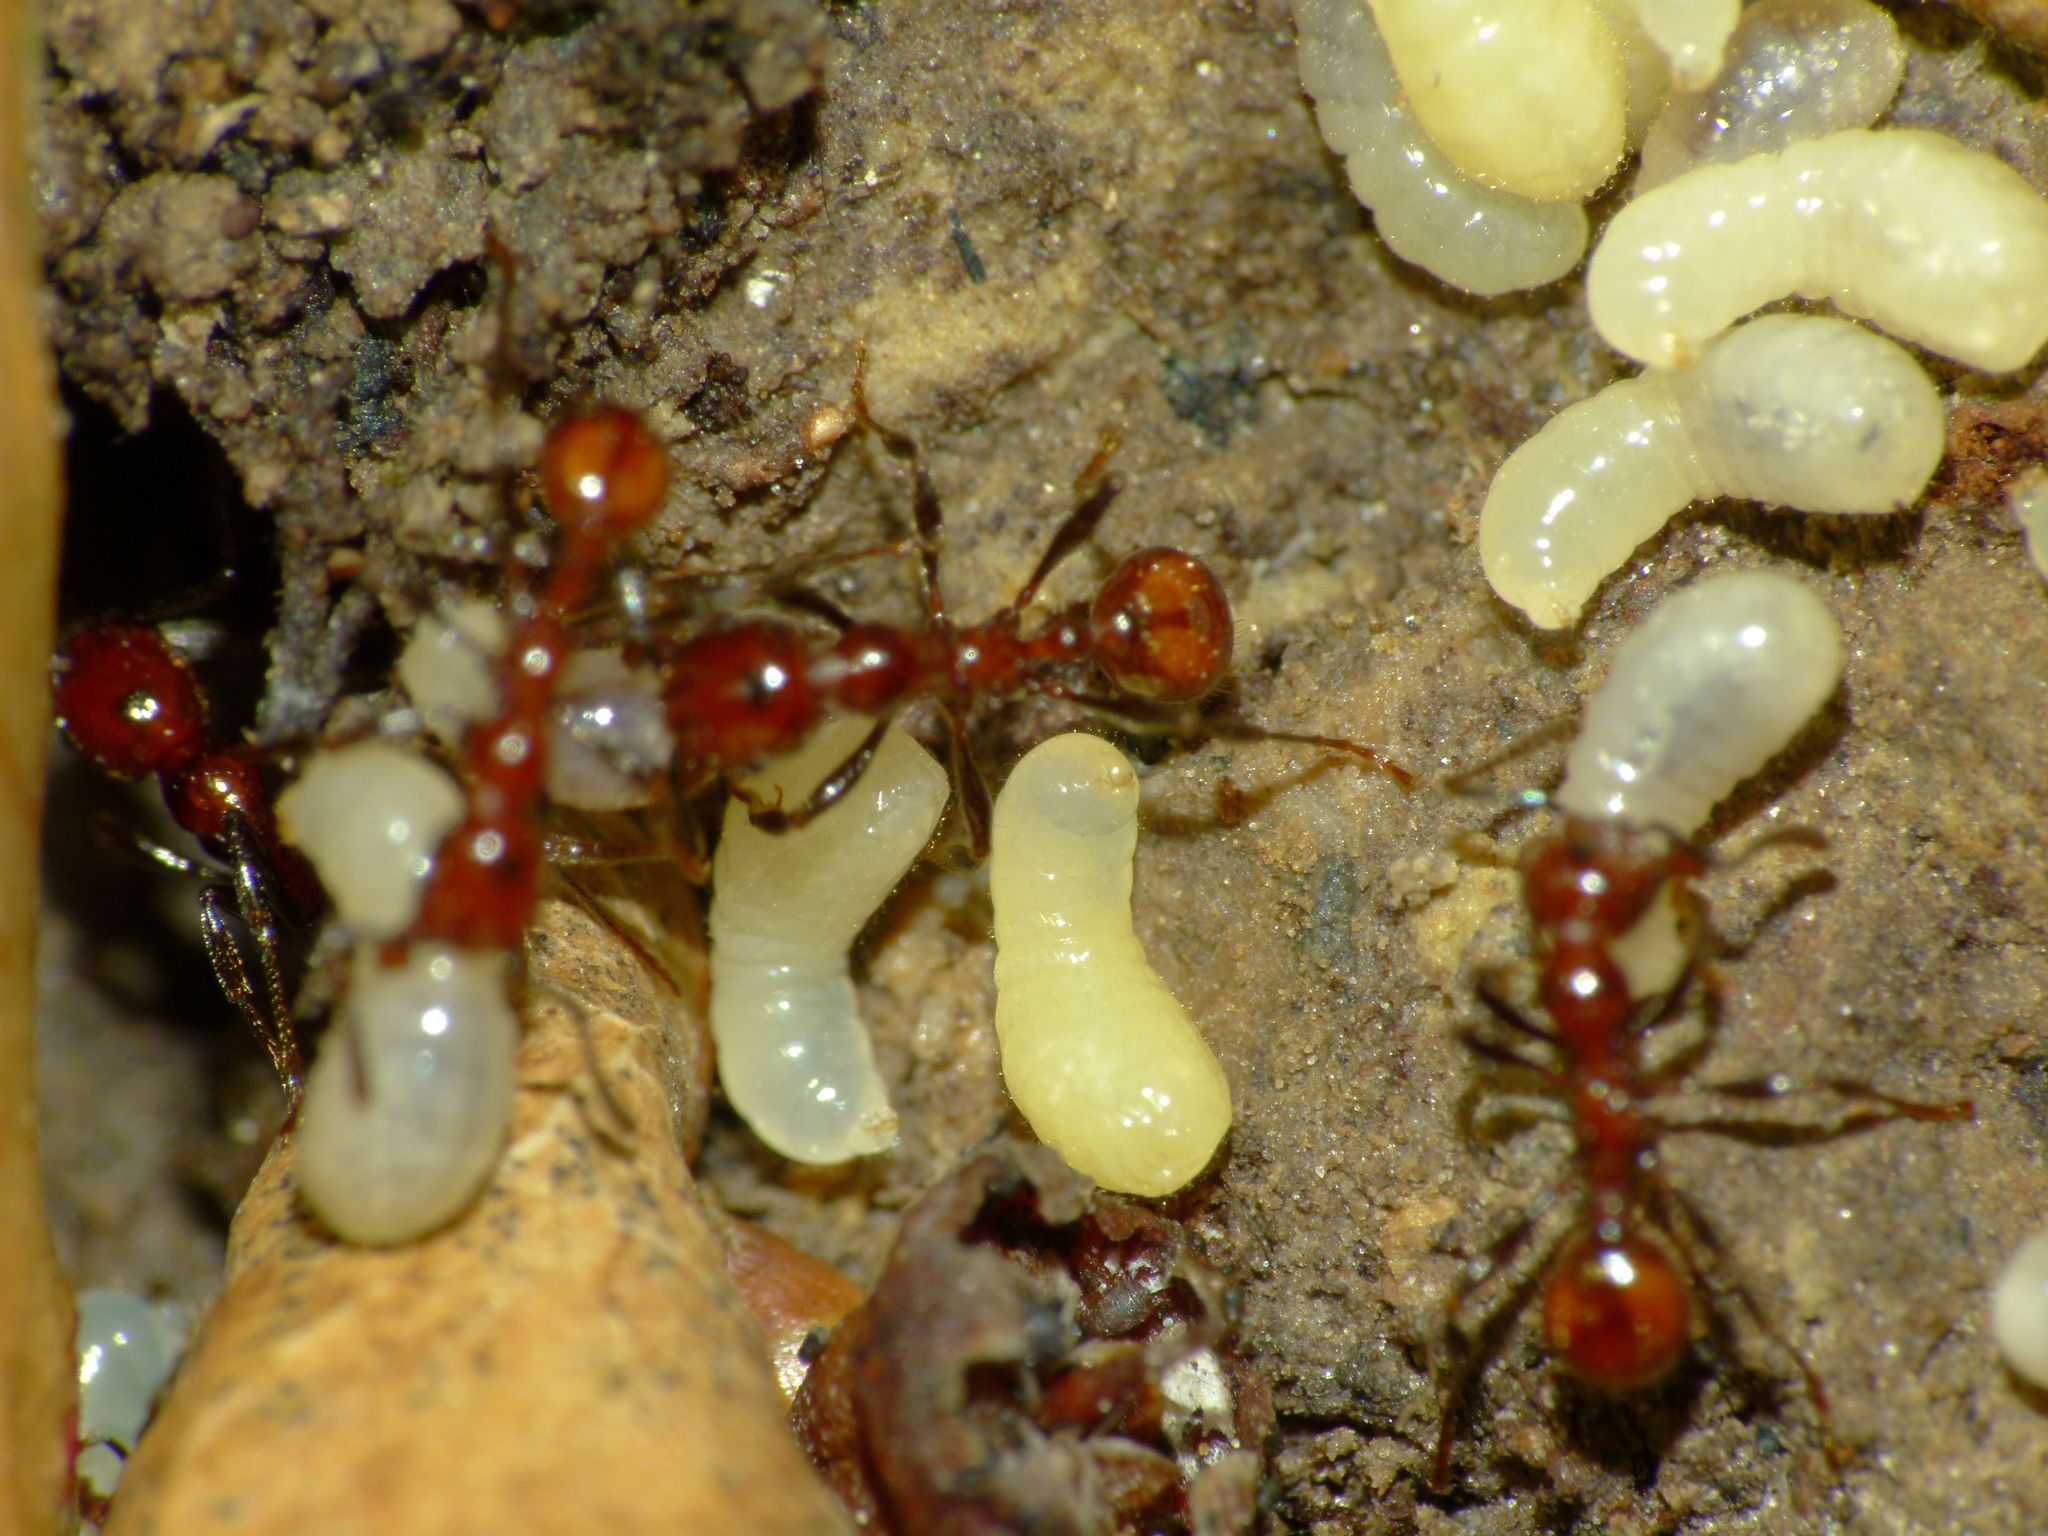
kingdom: Animalia
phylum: Arthropoda
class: Insecta
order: Hymenoptera
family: Formicidae
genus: Huberia
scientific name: Huberia striata
